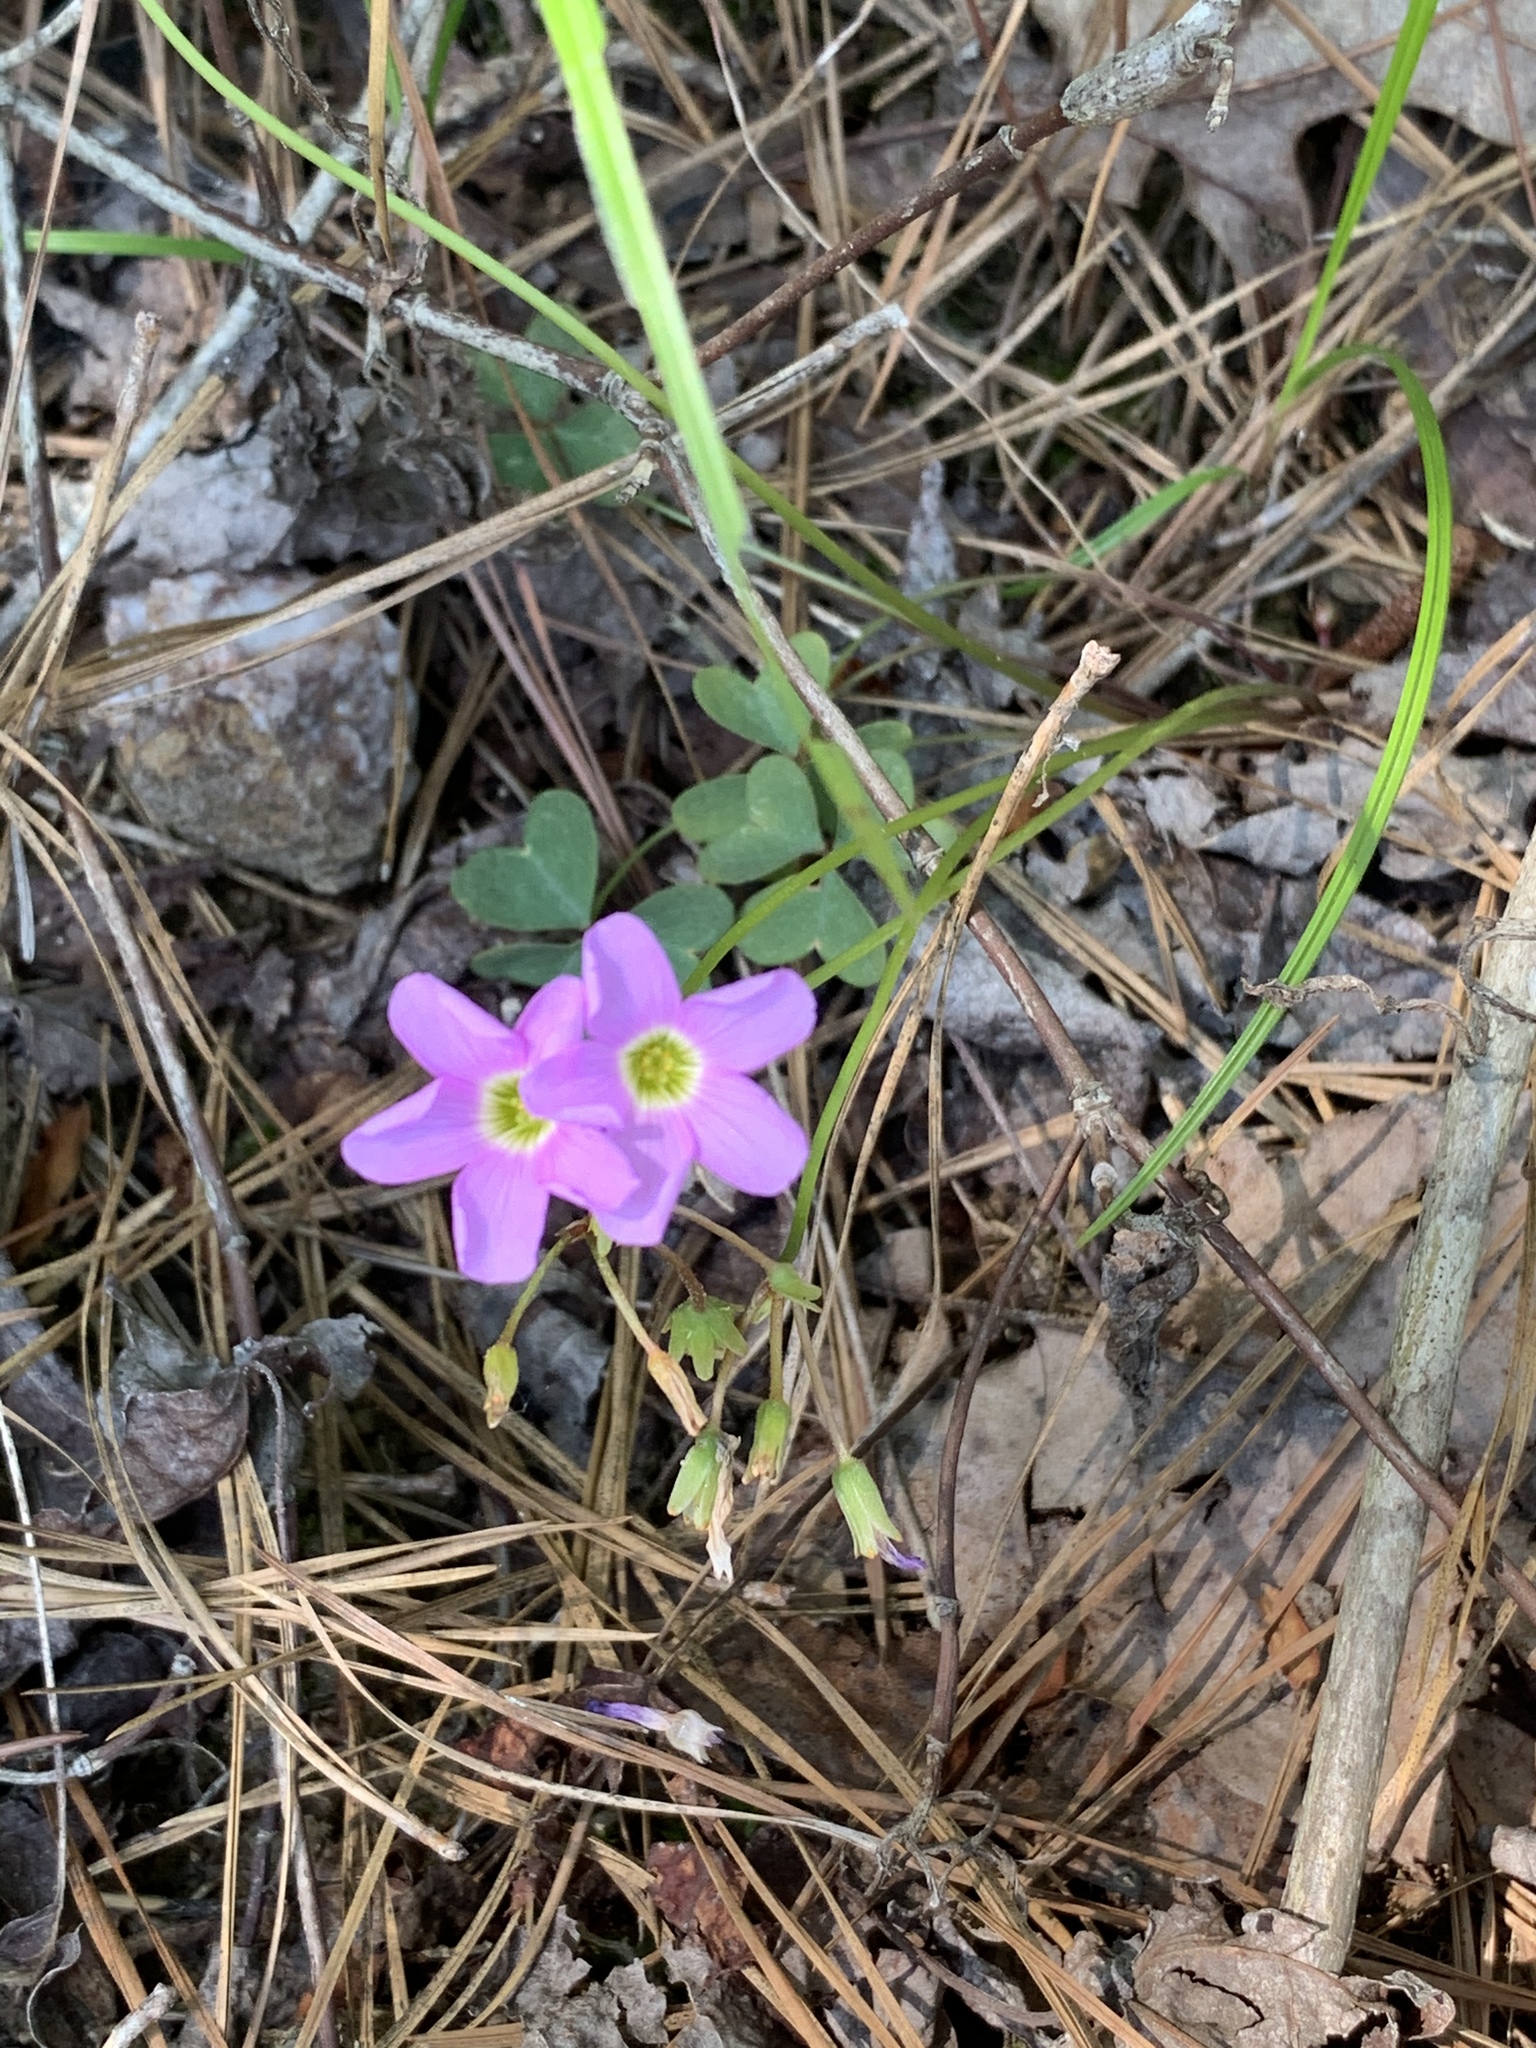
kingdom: Plantae
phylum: Tracheophyta
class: Magnoliopsida
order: Oxalidales
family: Oxalidaceae
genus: Oxalis
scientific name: Oxalis violacea
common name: Violet wood-sorrel
